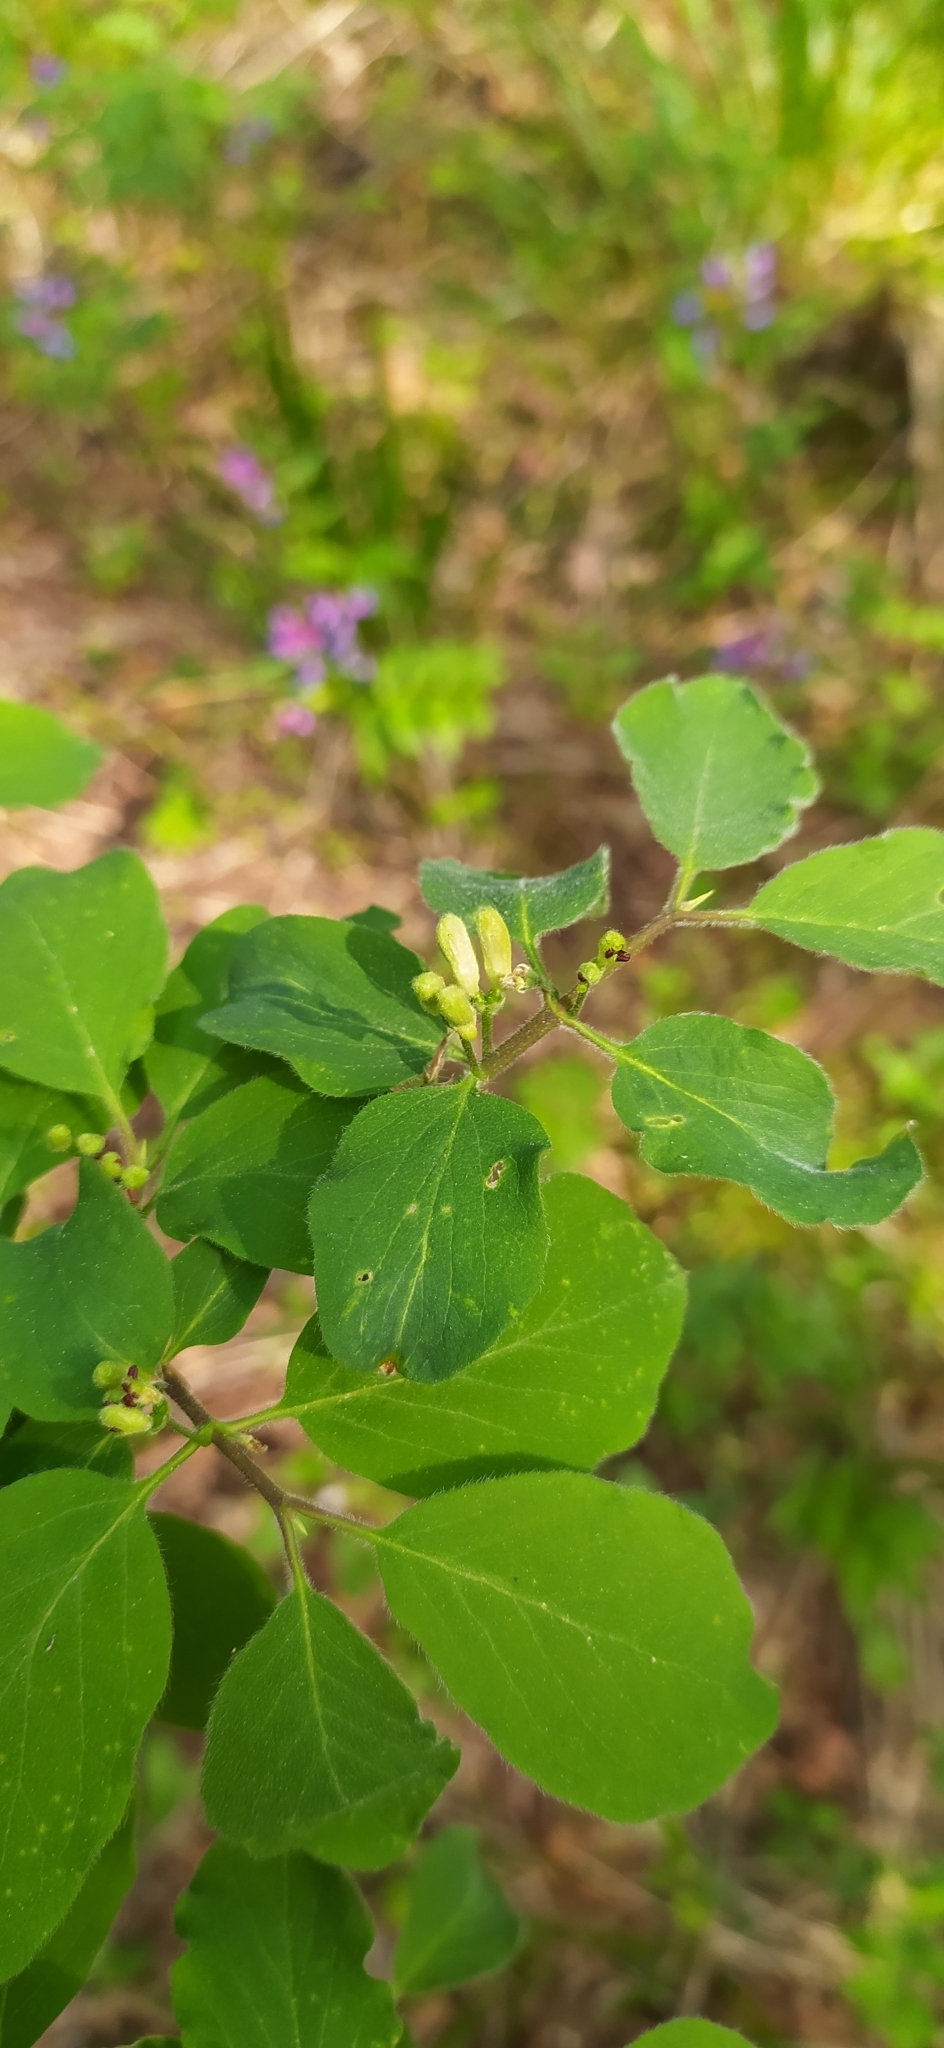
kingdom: Plantae
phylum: Tracheophyta
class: Magnoliopsida
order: Dipsacales
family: Caprifoliaceae
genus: Lonicera
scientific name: Lonicera xylosteum
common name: Fly honeysuckle
